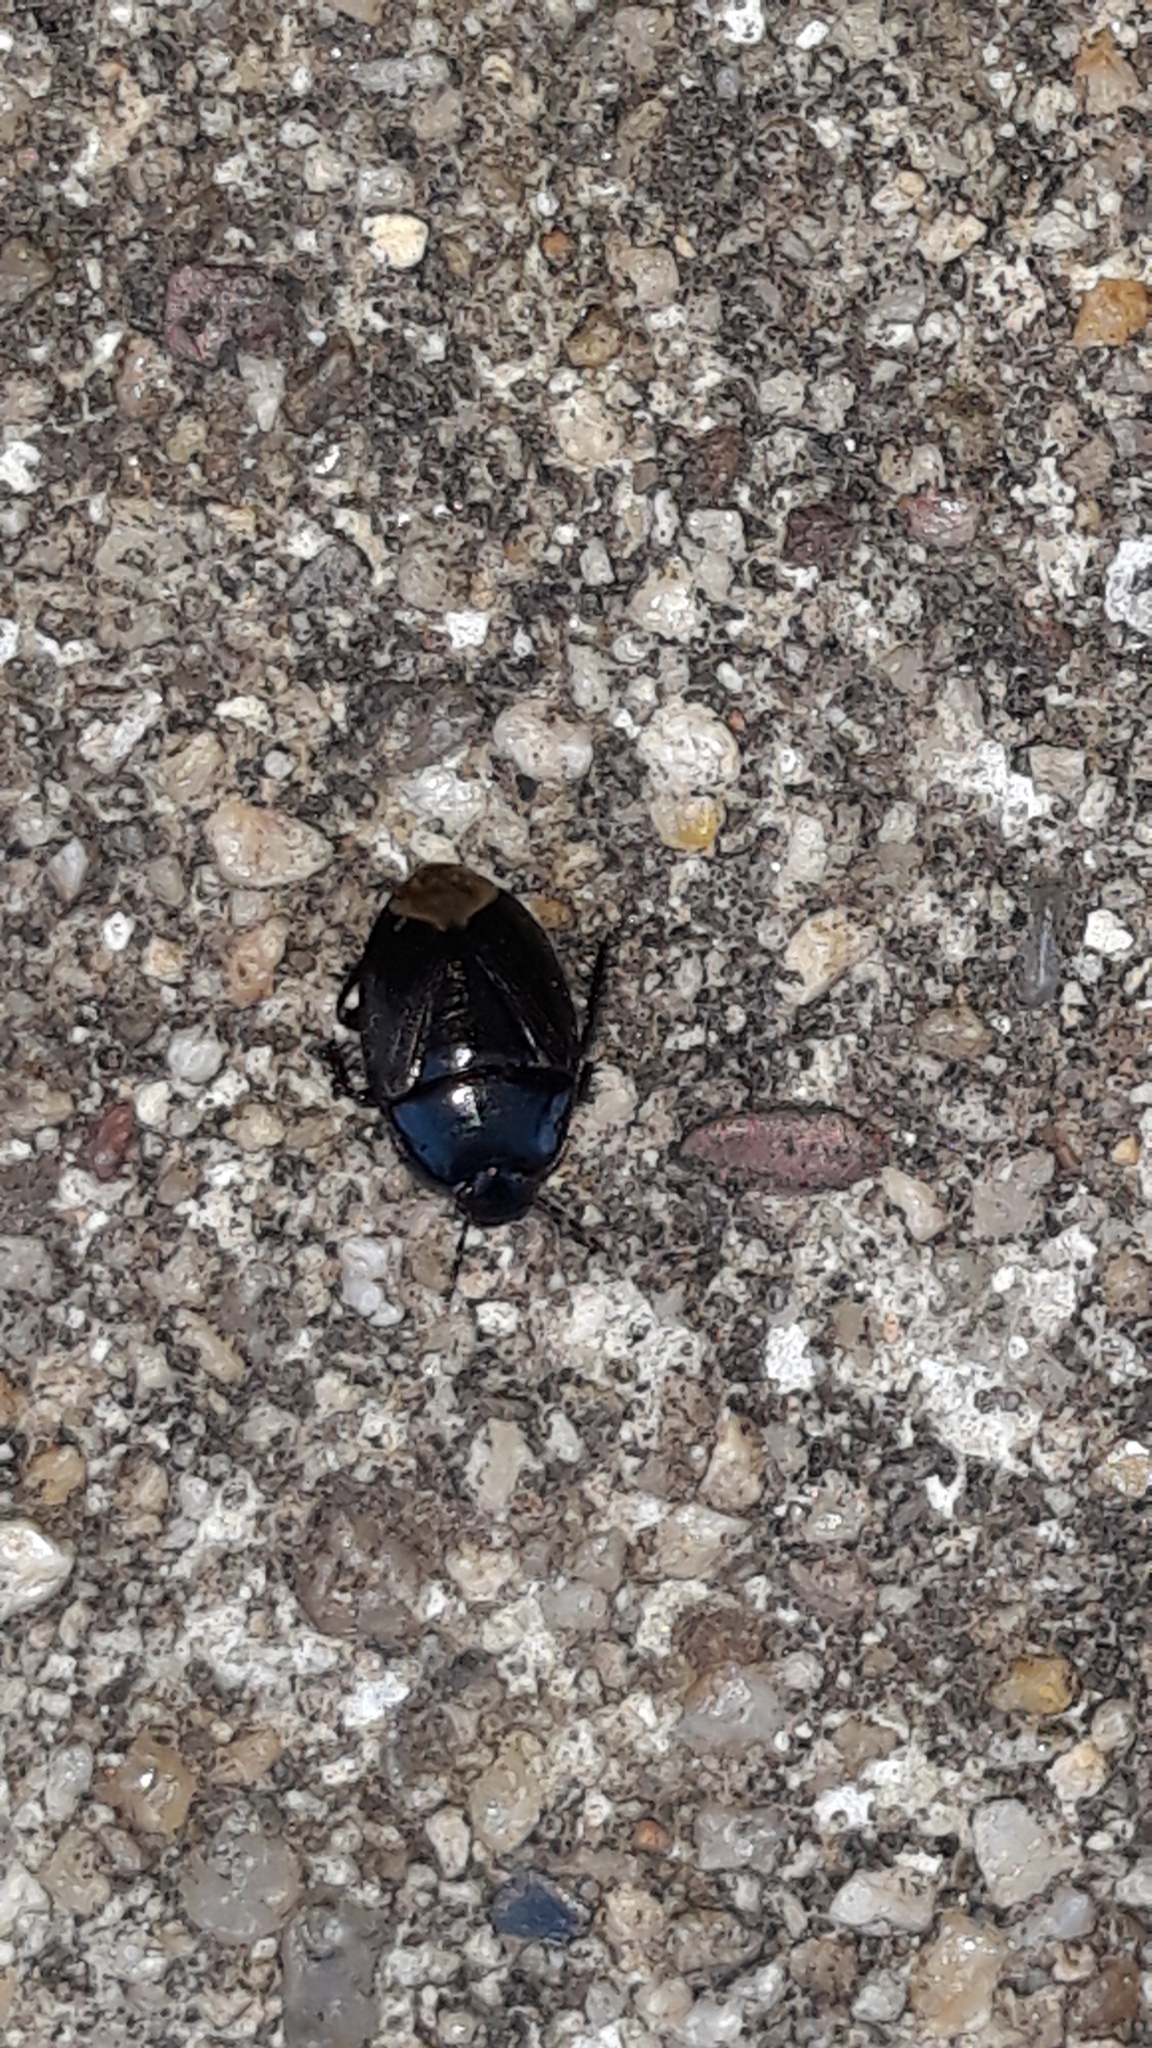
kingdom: Animalia
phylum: Arthropoda
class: Insecta
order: Hemiptera
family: Cydnidae
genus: Macroscytus
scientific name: Macroscytus brunneus
